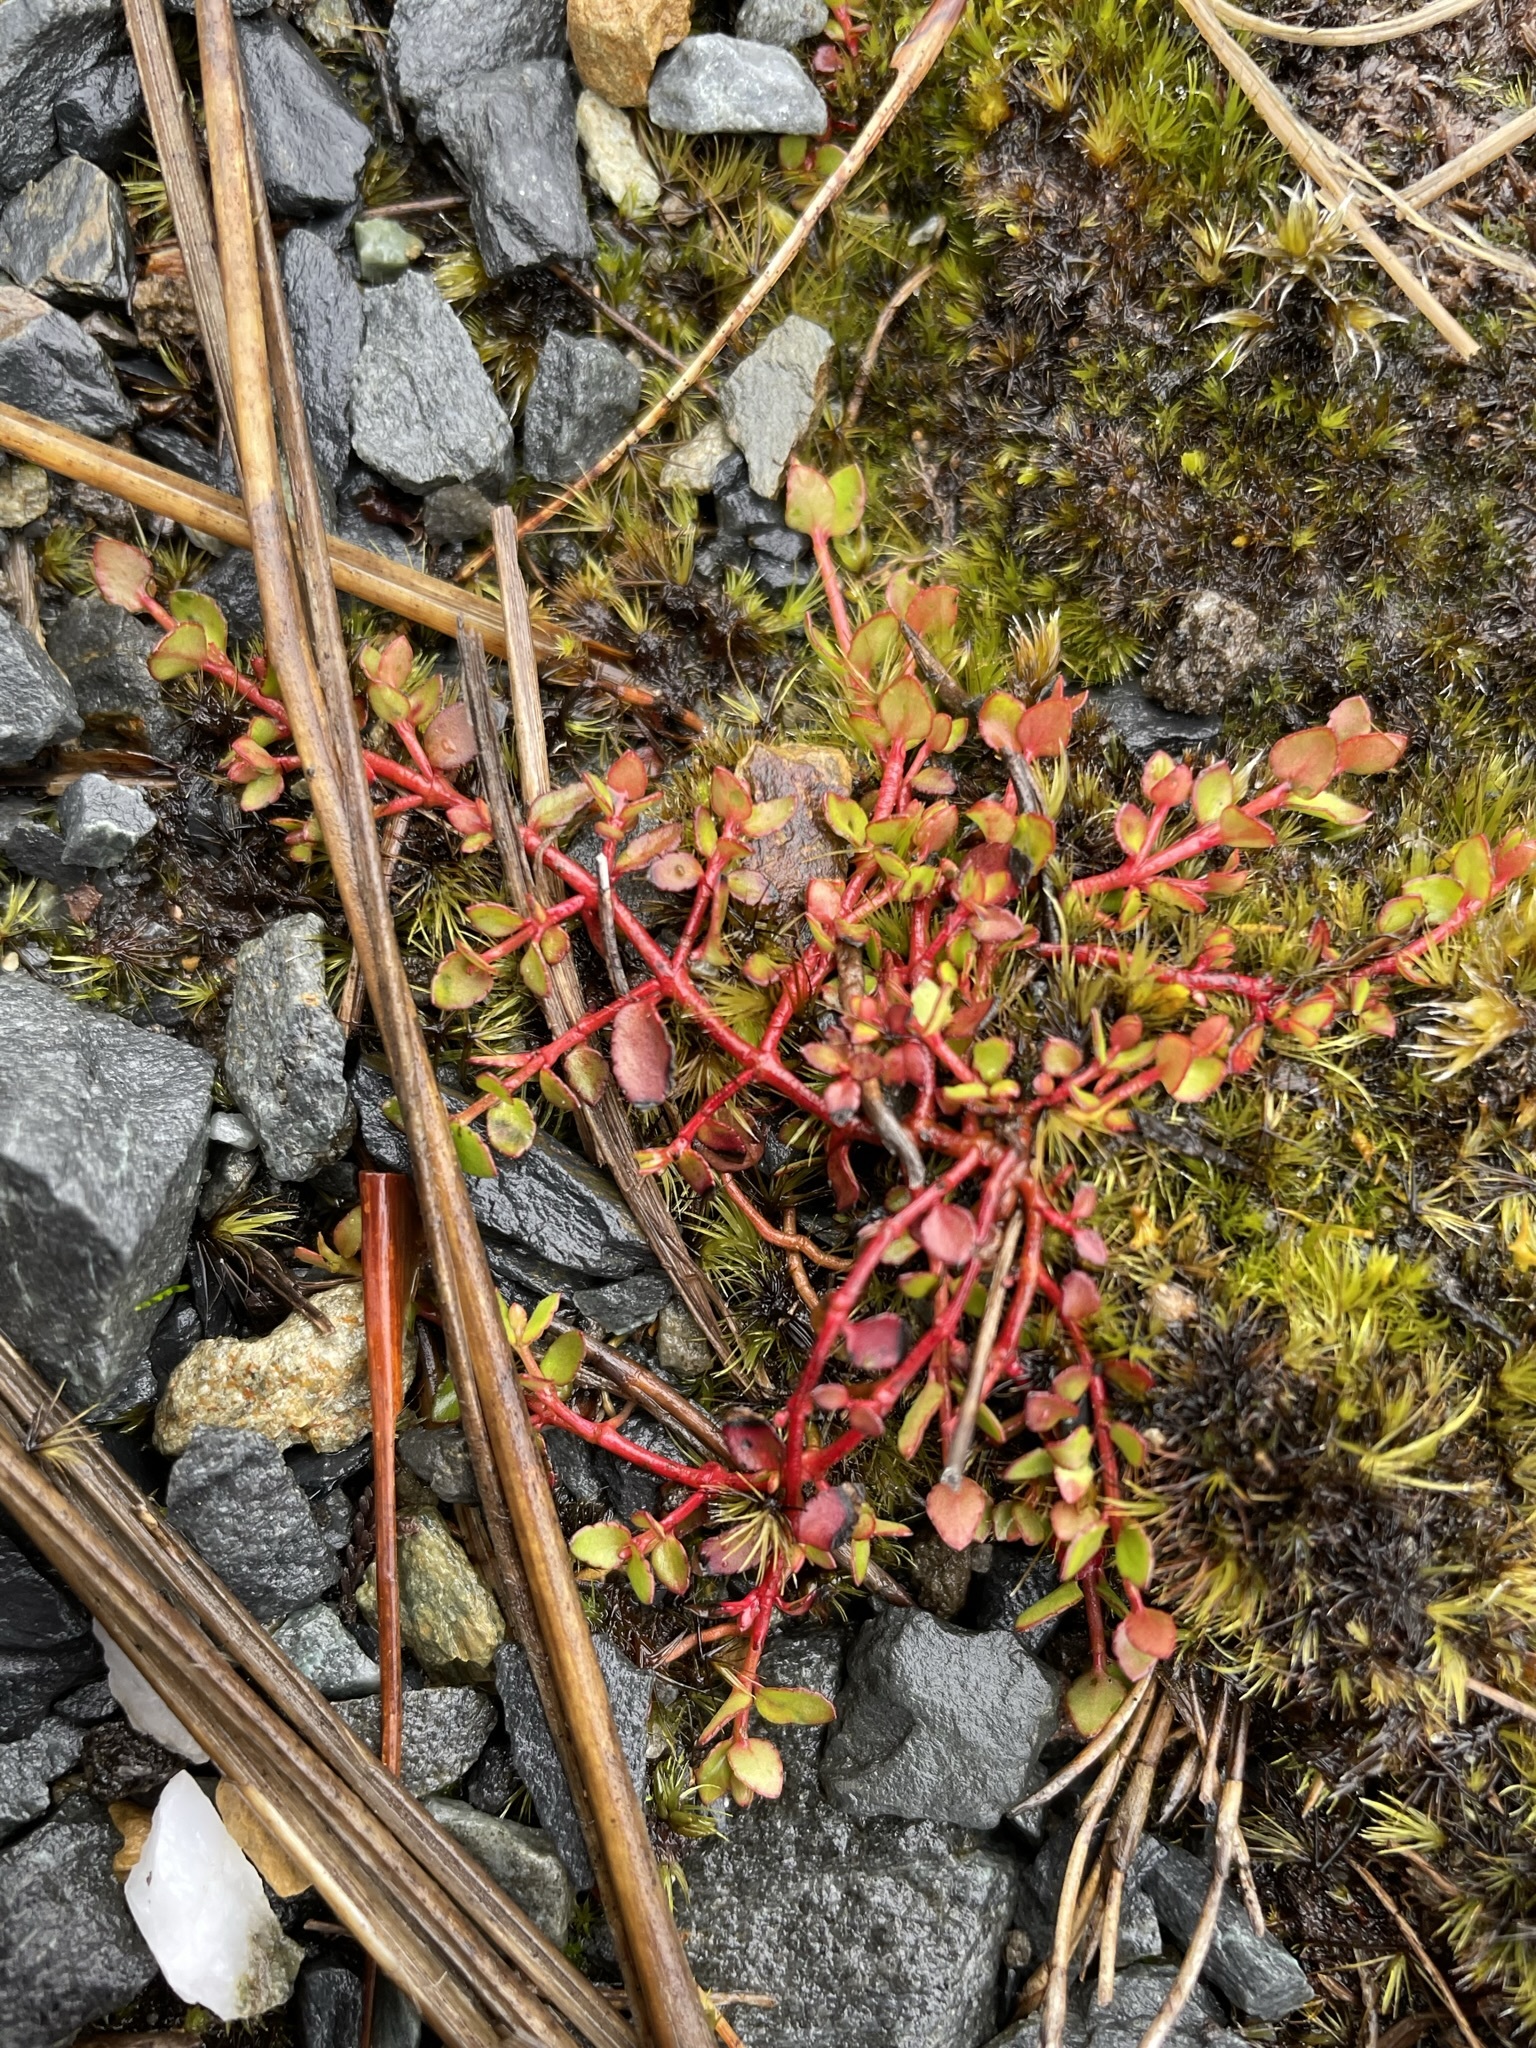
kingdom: Plantae
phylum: Tracheophyta
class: Magnoliopsida
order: Saxifragales
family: Haloragaceae
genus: Gonocarpus
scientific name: Gonocarpus micranthus
